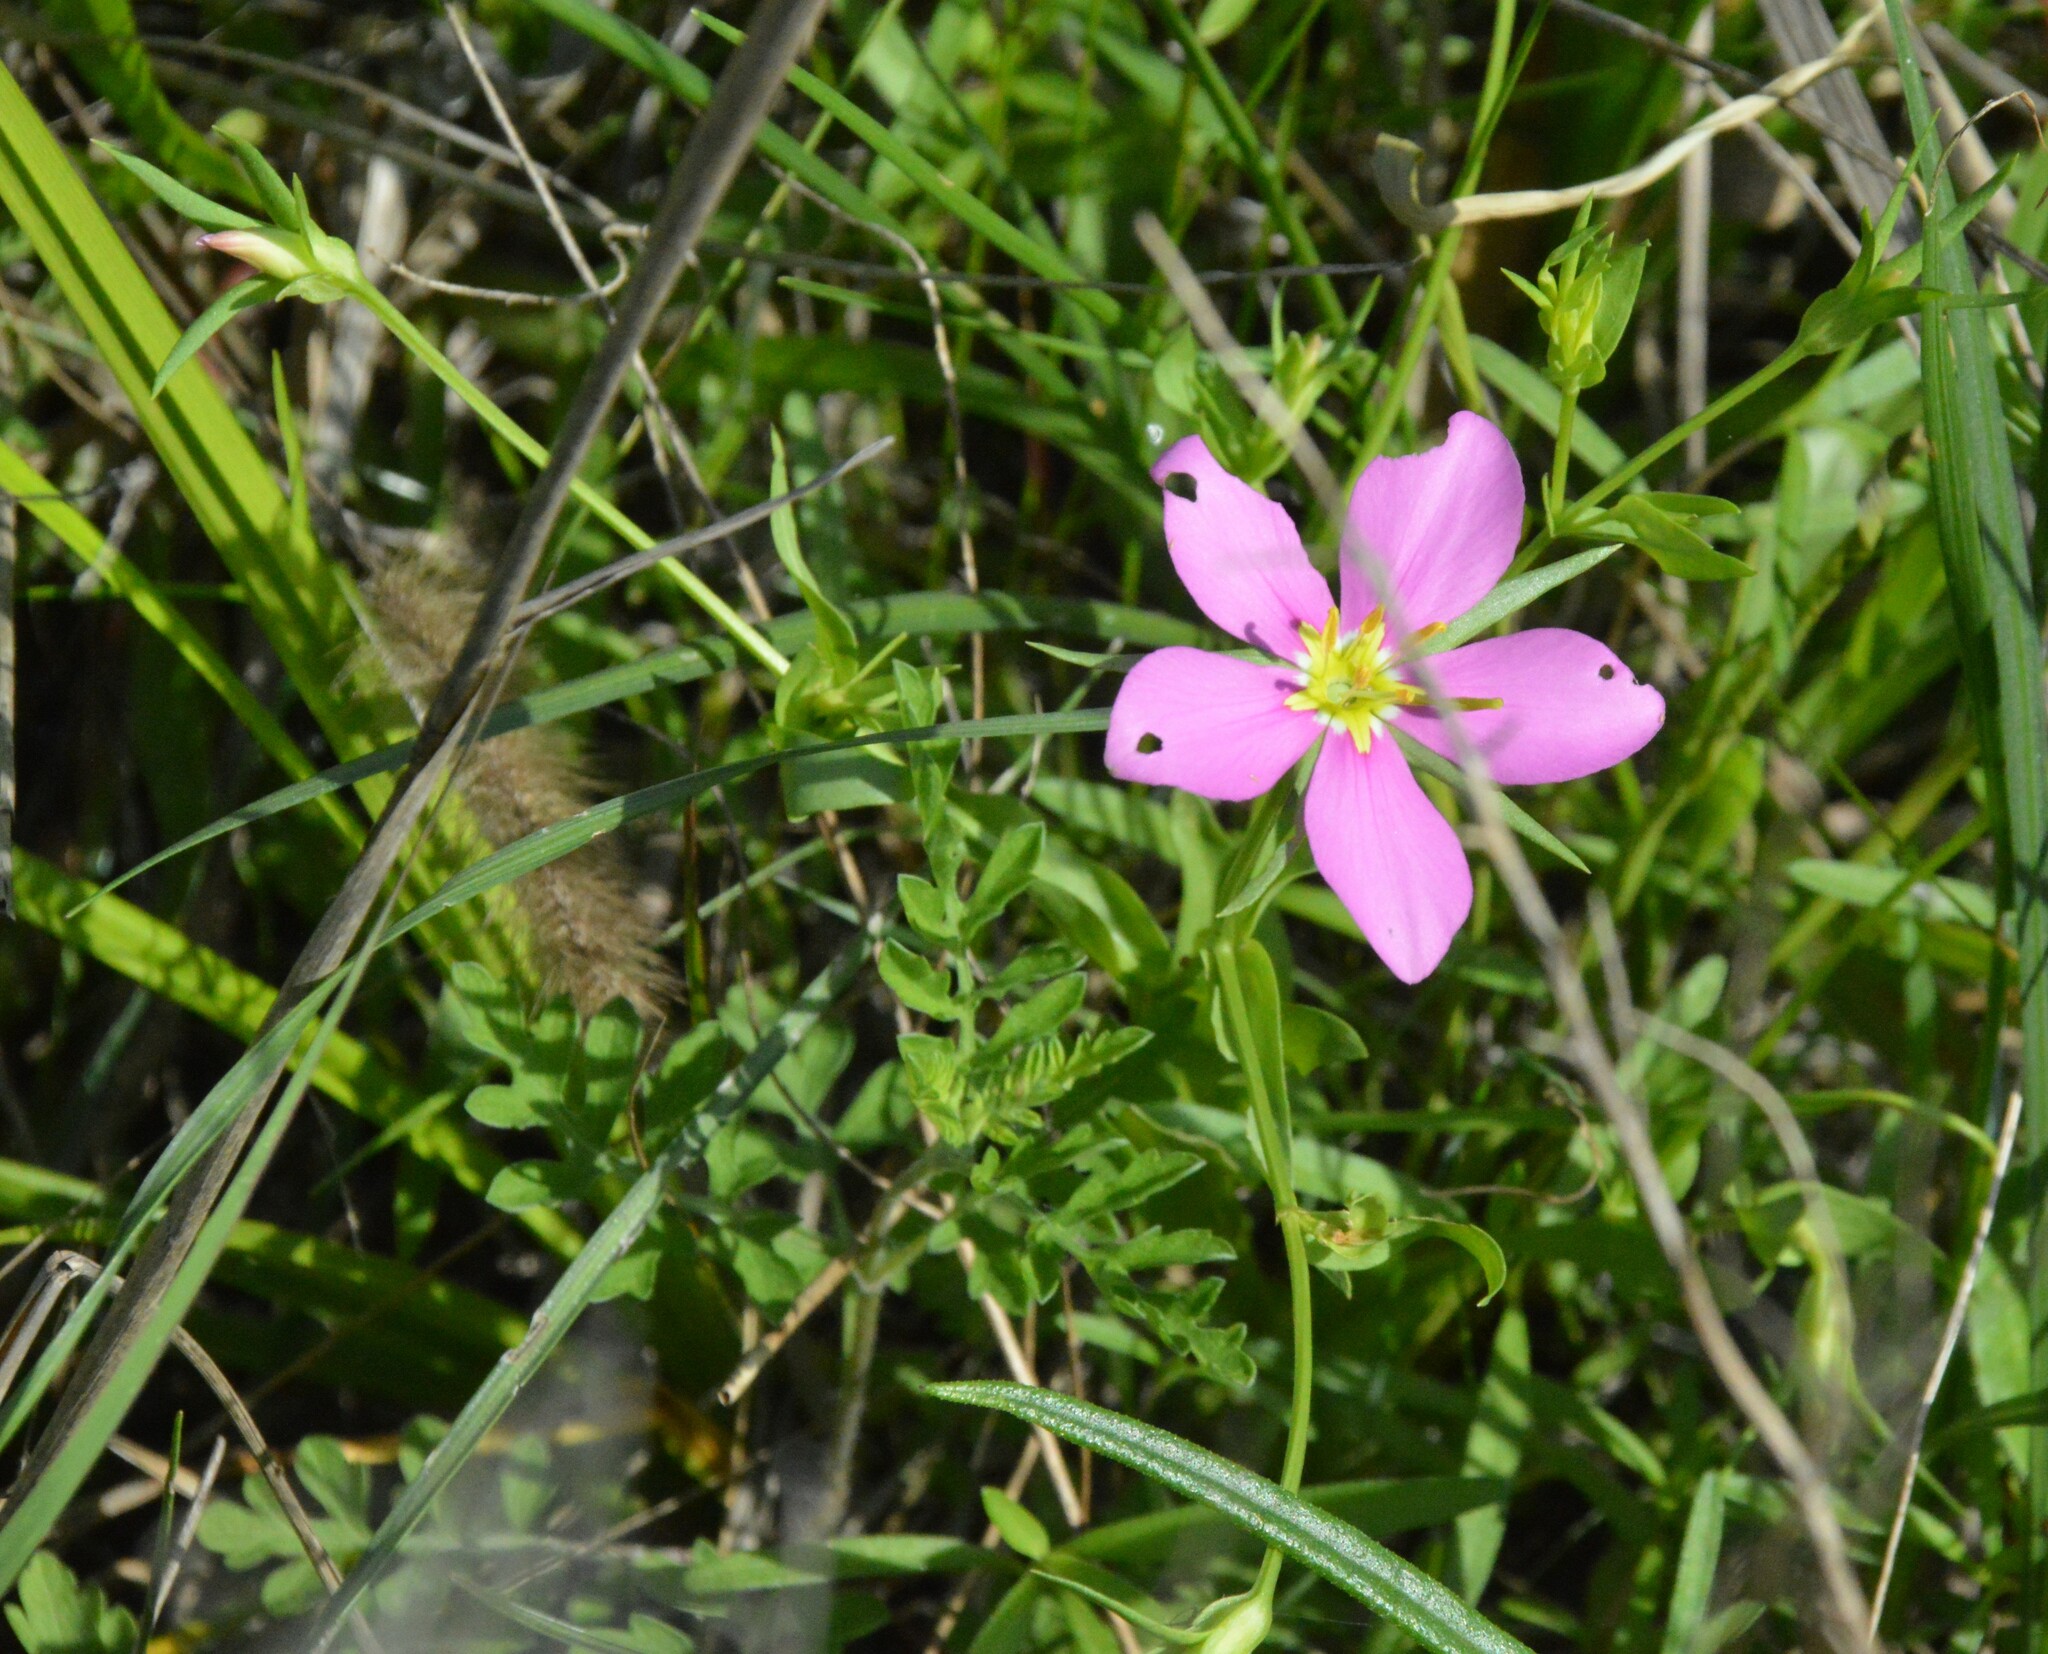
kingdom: Plantae
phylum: Tracheophyta
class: Magnoliopsida
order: Gentianales
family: Gentianaceae
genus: Sabatia
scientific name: Sabatia campestris
